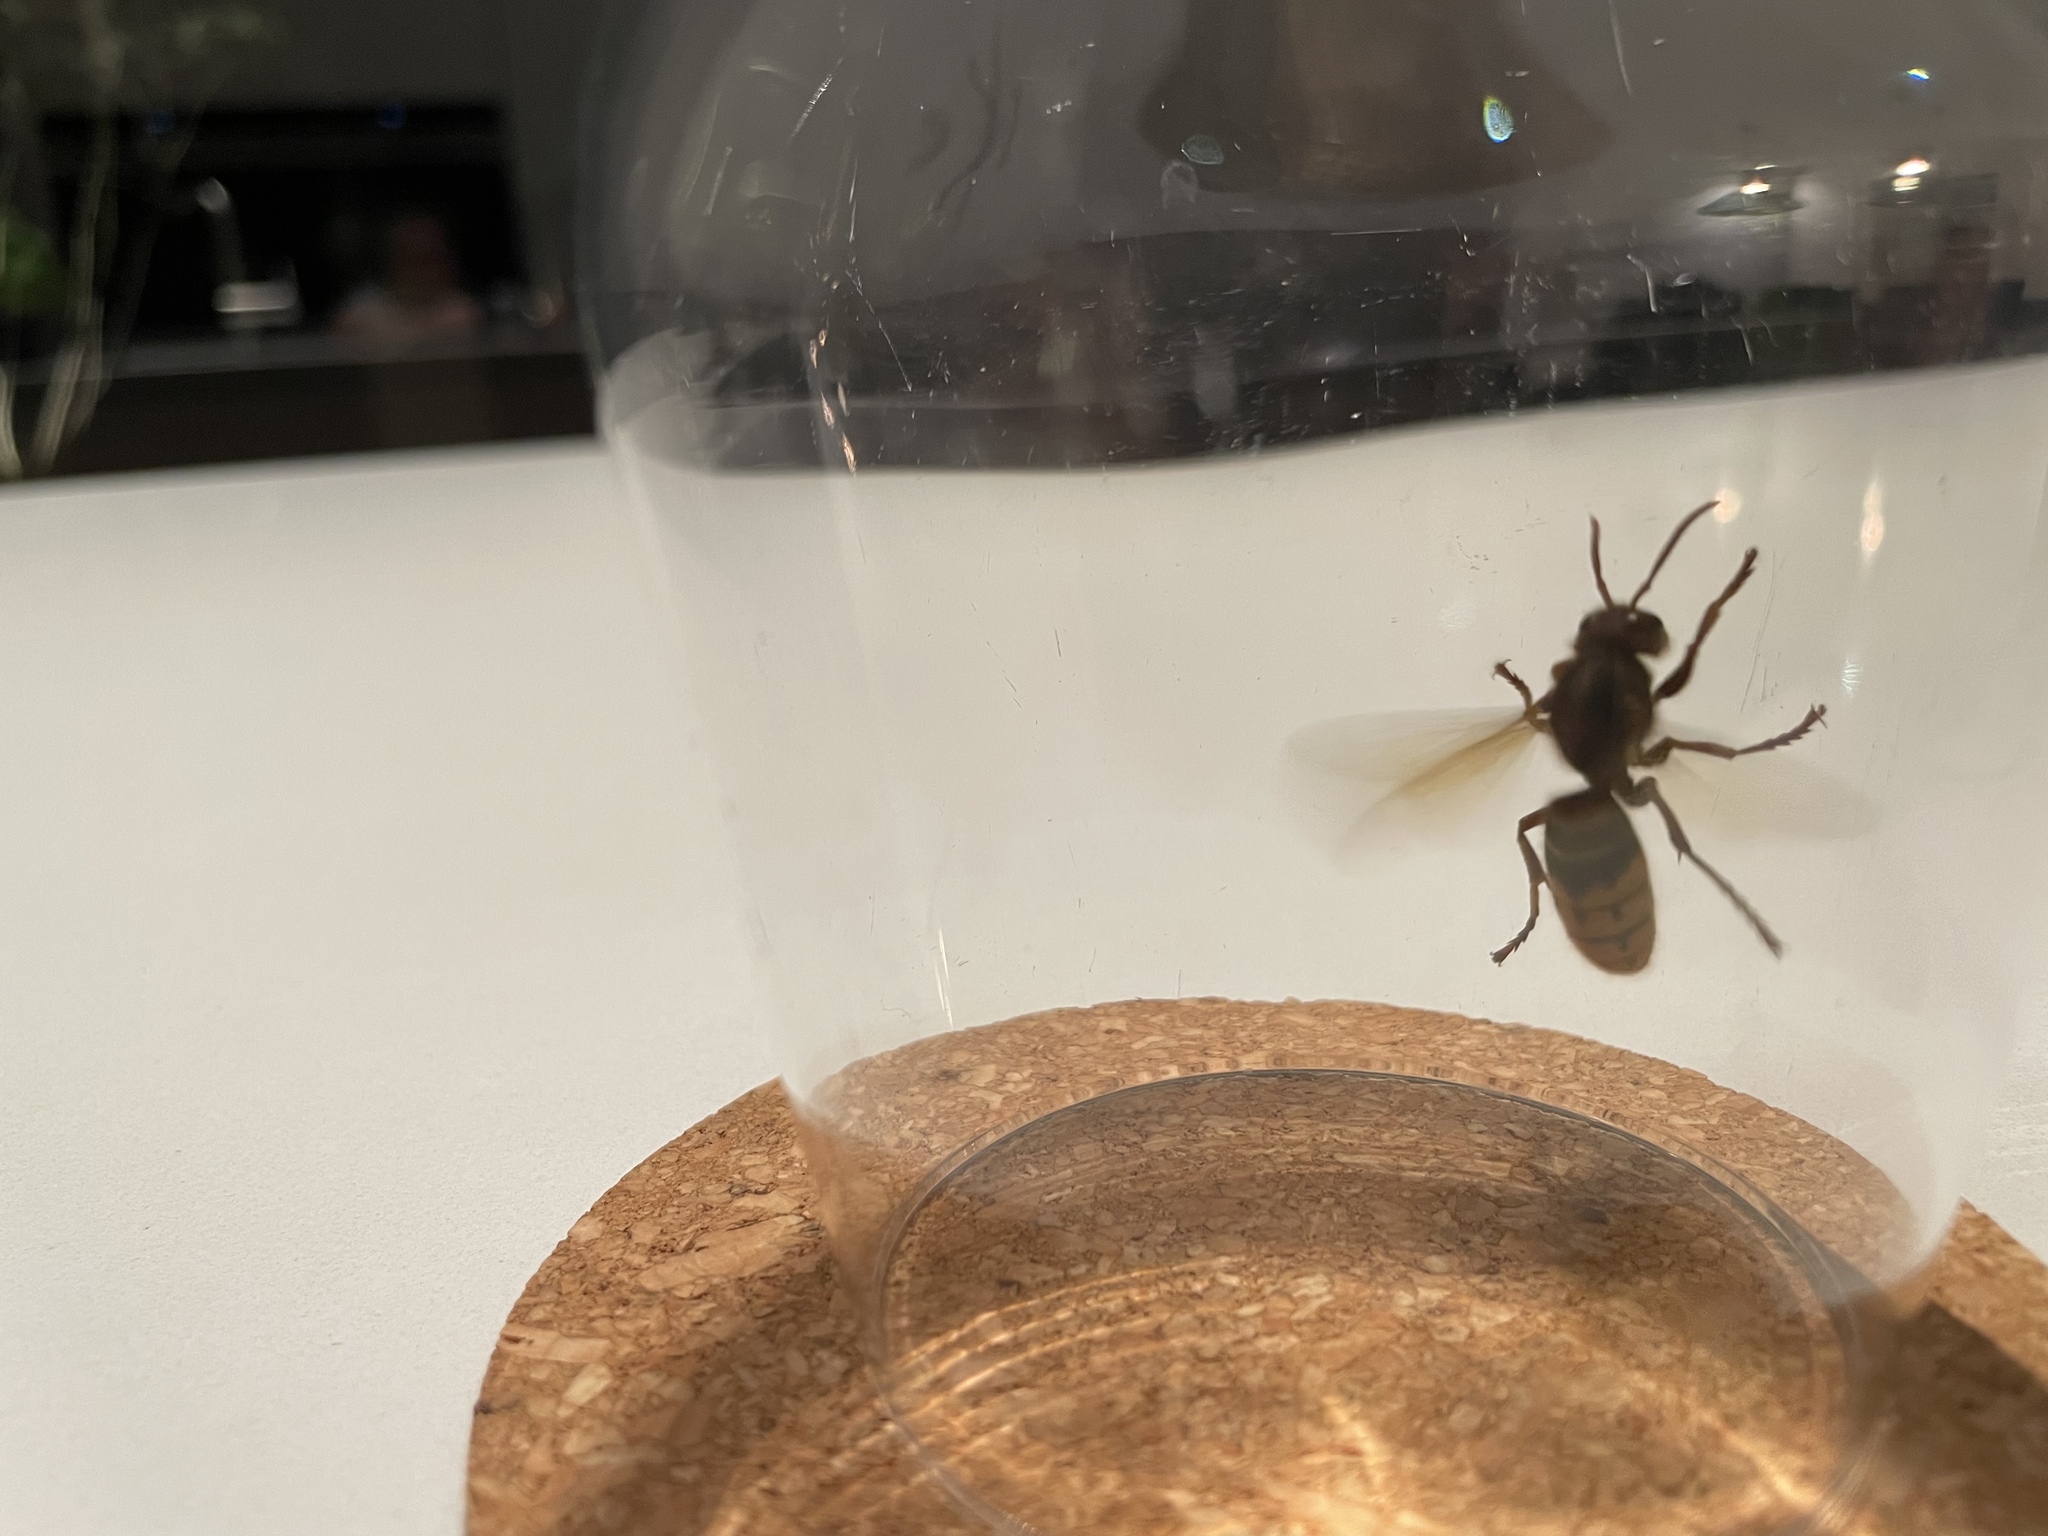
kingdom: Animalia
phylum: Arthropoda
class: Insecta
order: Hymenoptera
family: Vespidae
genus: Vespa
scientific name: Vespa crabro
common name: Hornet
